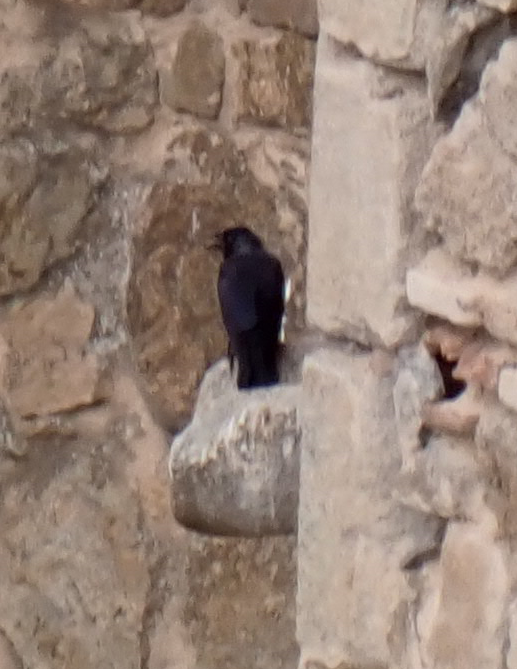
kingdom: Animalia
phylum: Chordata
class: Aves
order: Passeriformes
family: Corvidae
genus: Coloeus
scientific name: Coloeus monedula
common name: Western jackdaw
